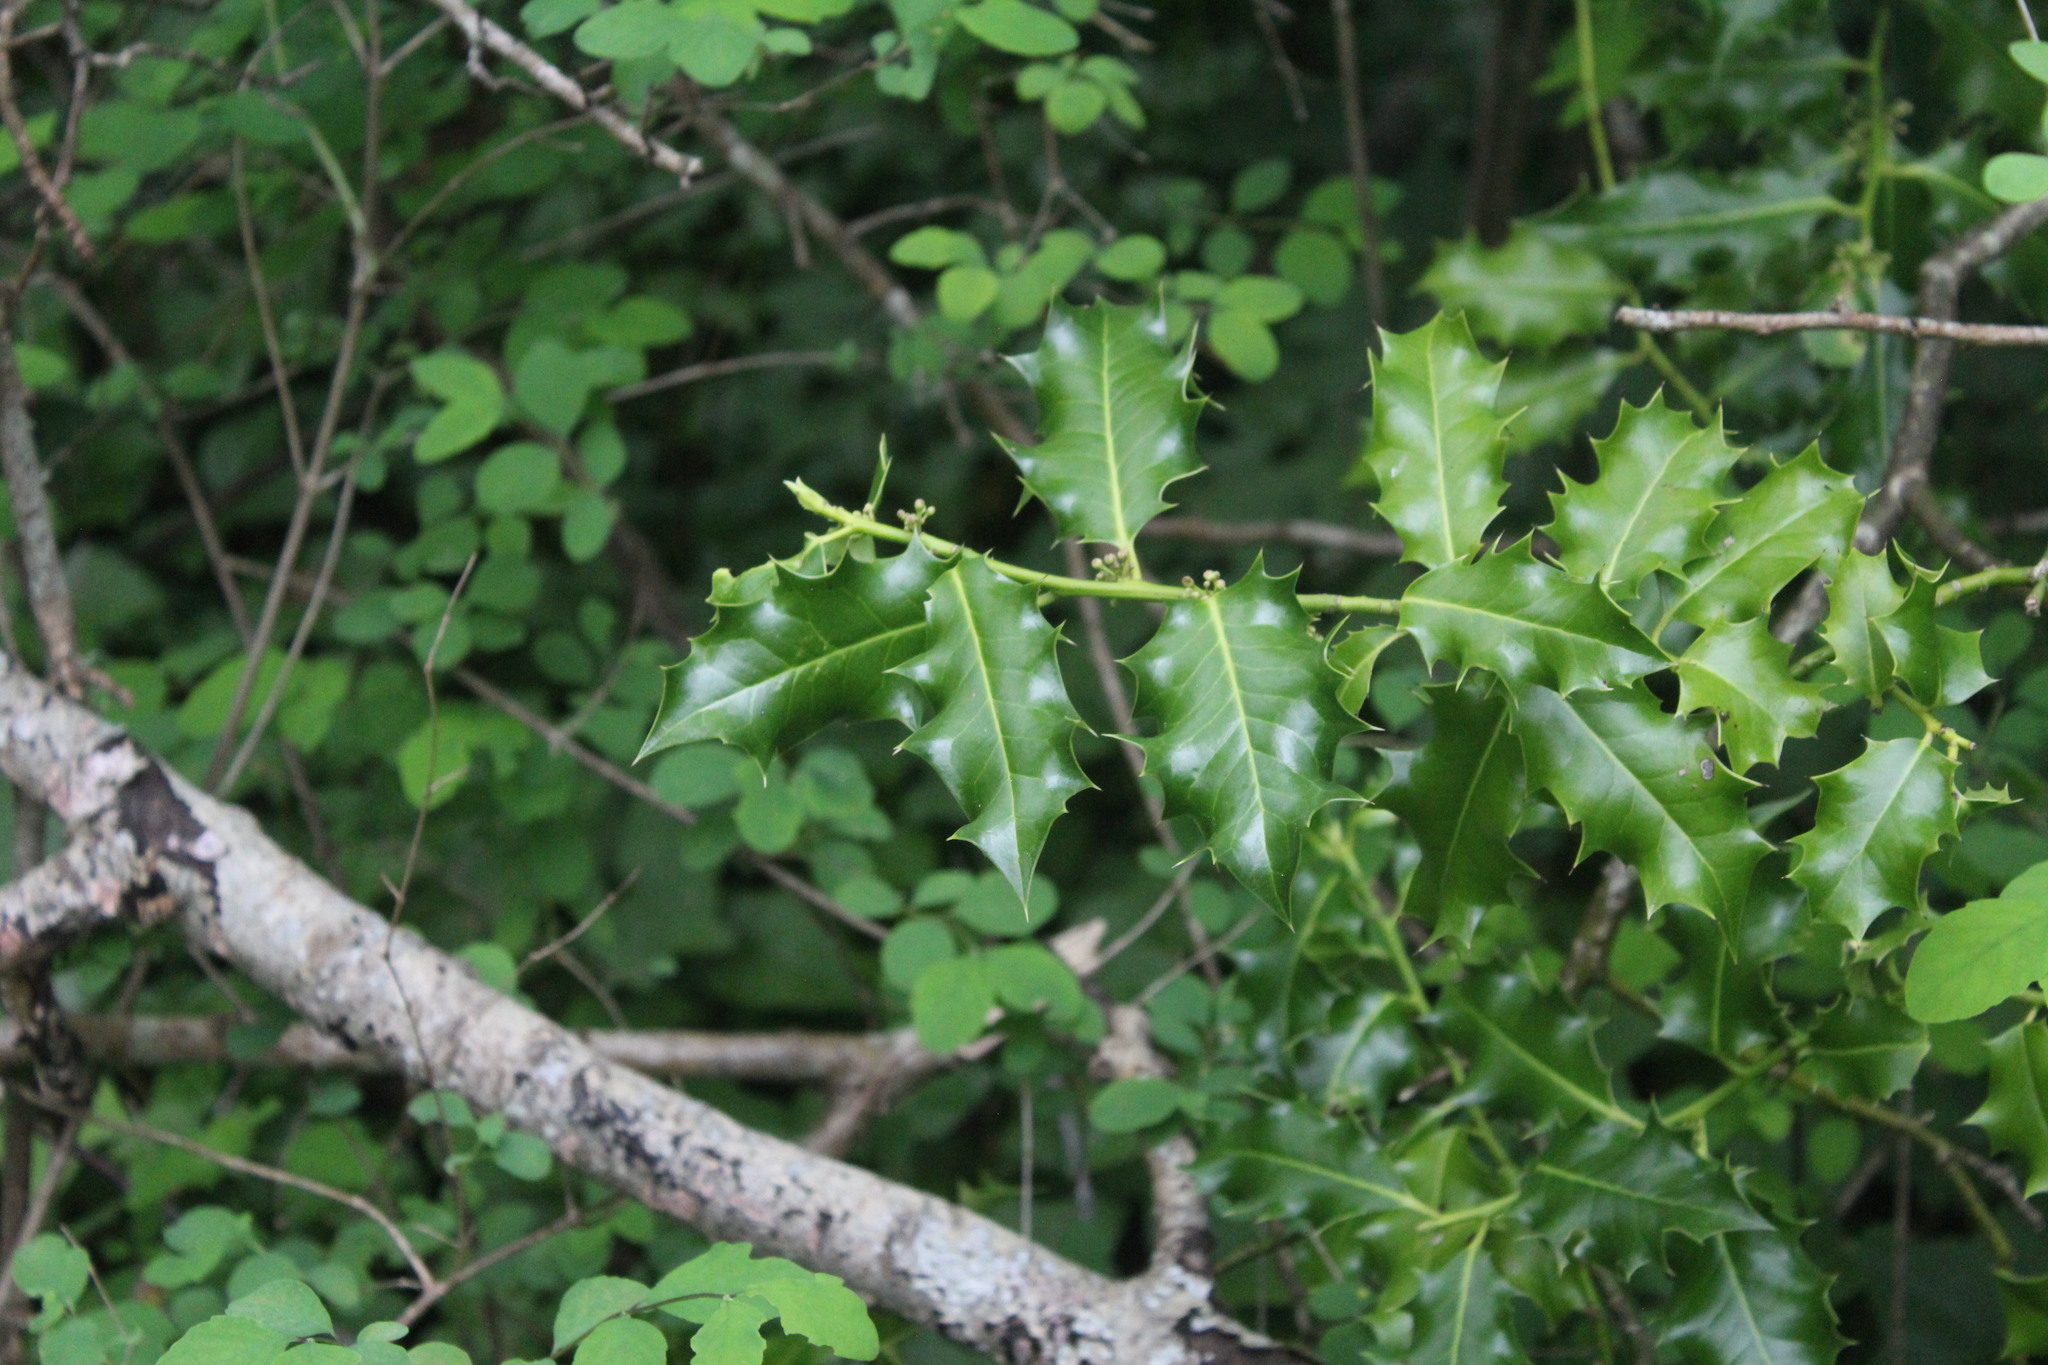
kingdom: Plantae
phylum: Tracheophyta
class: Magnoliopsida
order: Aquifoliales
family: Aquifoliaceae
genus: Ilex
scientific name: Ilex aquifolium
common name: English holly
